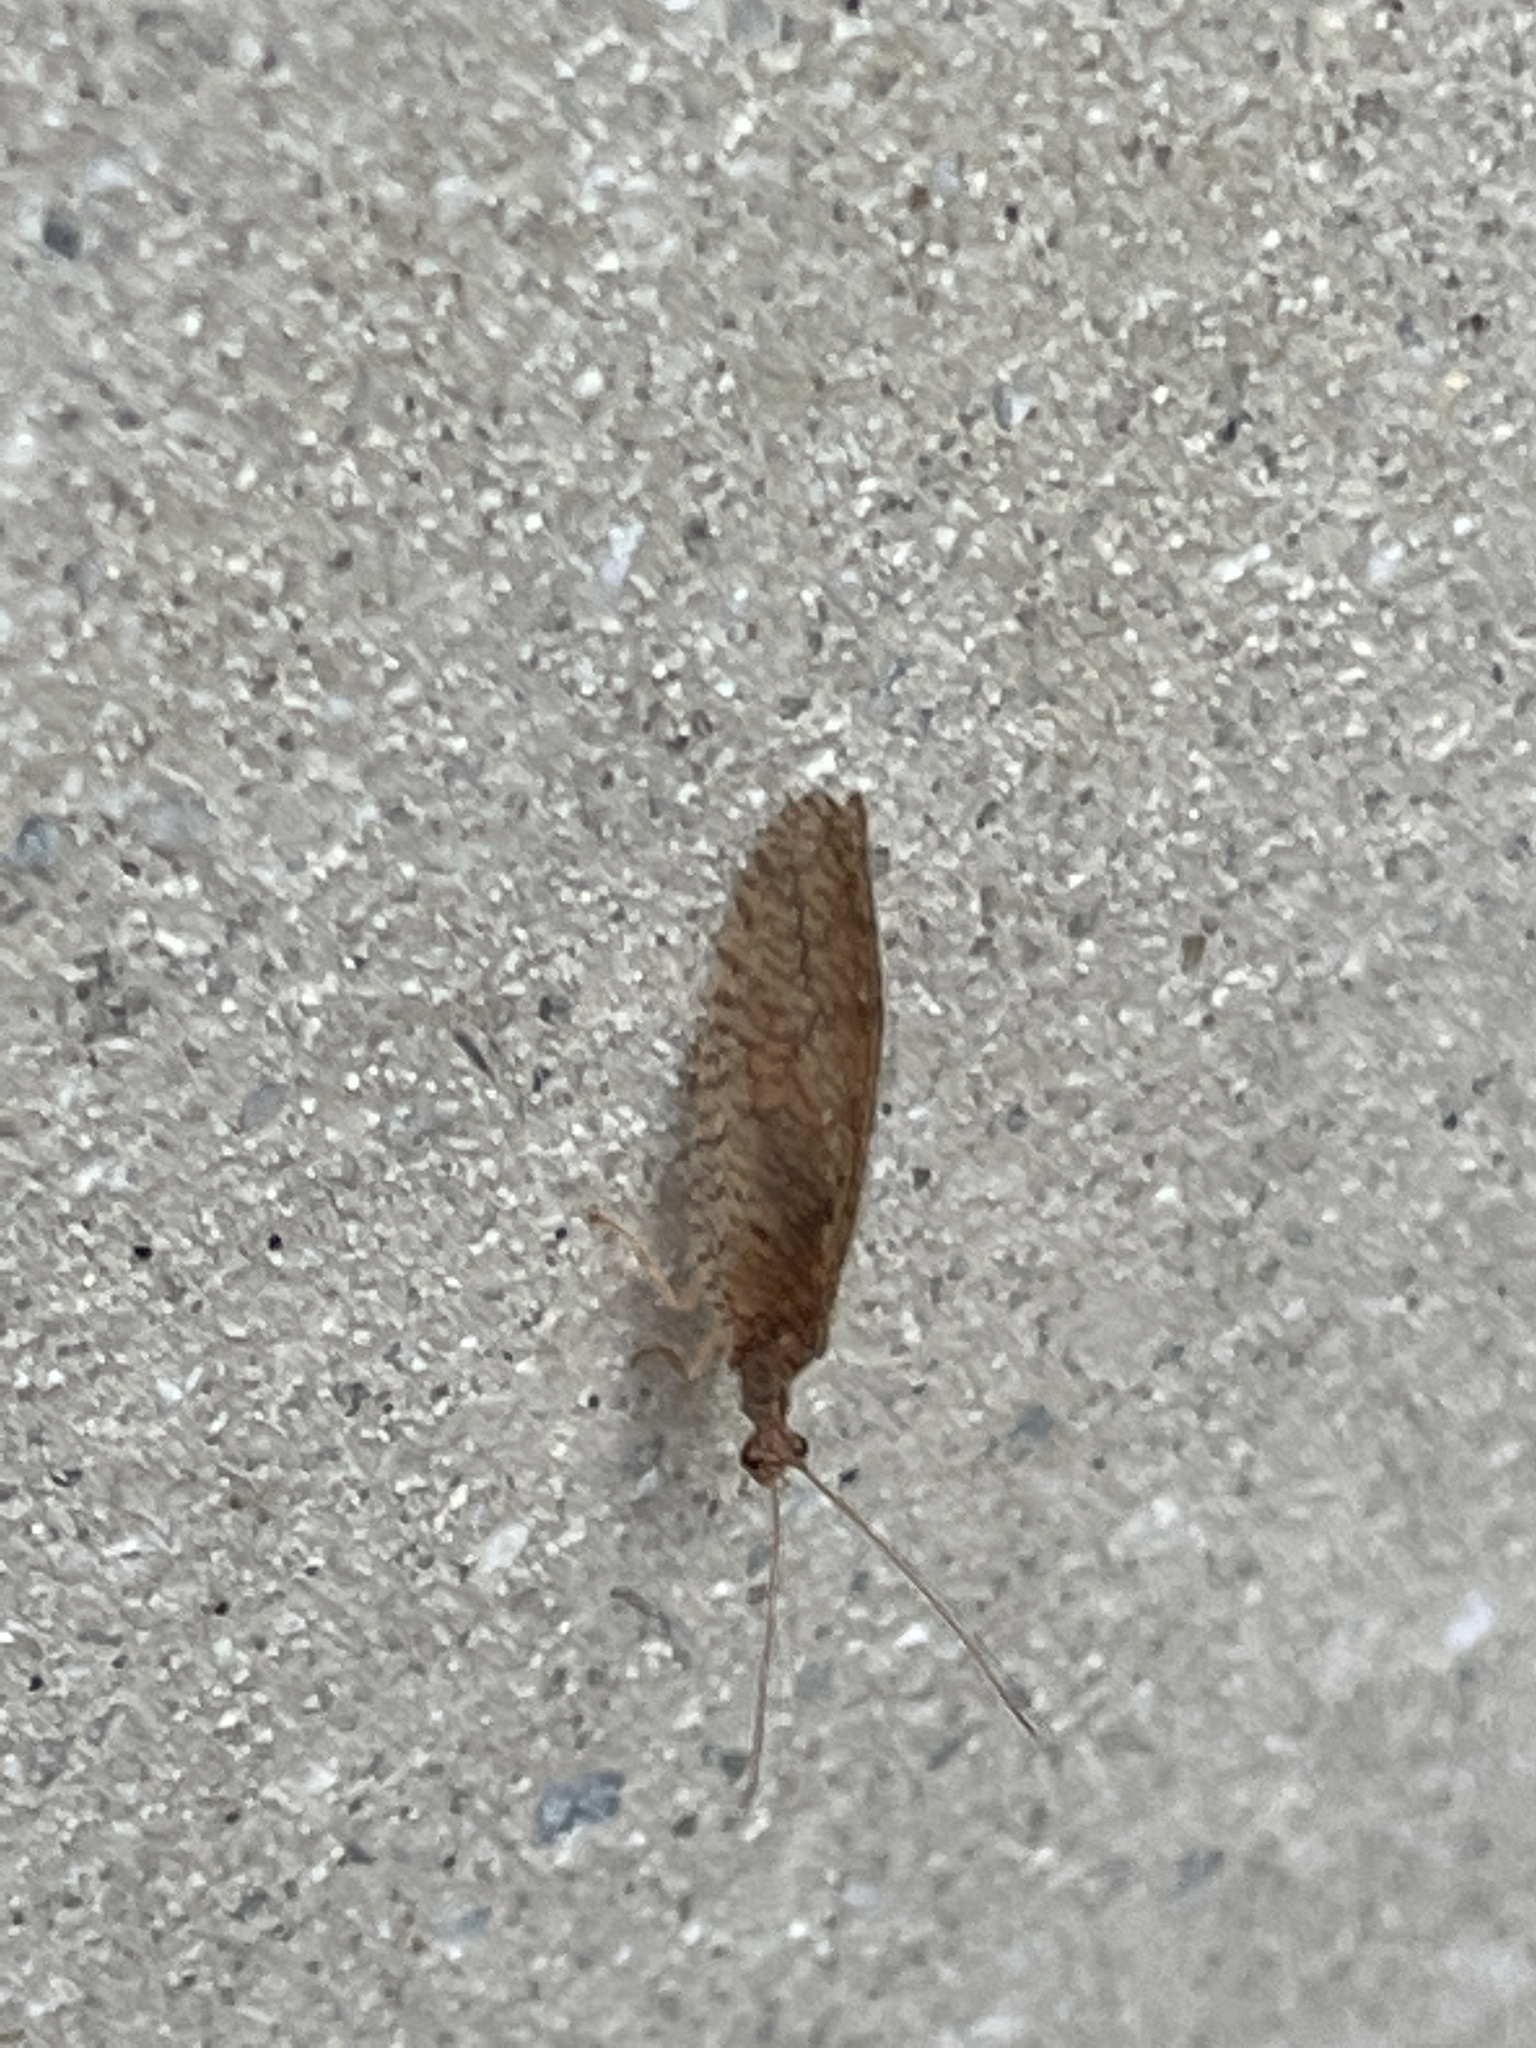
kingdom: Animalia
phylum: Arthropoda
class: Insecta
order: Neuroptera
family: Hemerobiidae
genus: Micromus
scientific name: Micromus posticus
